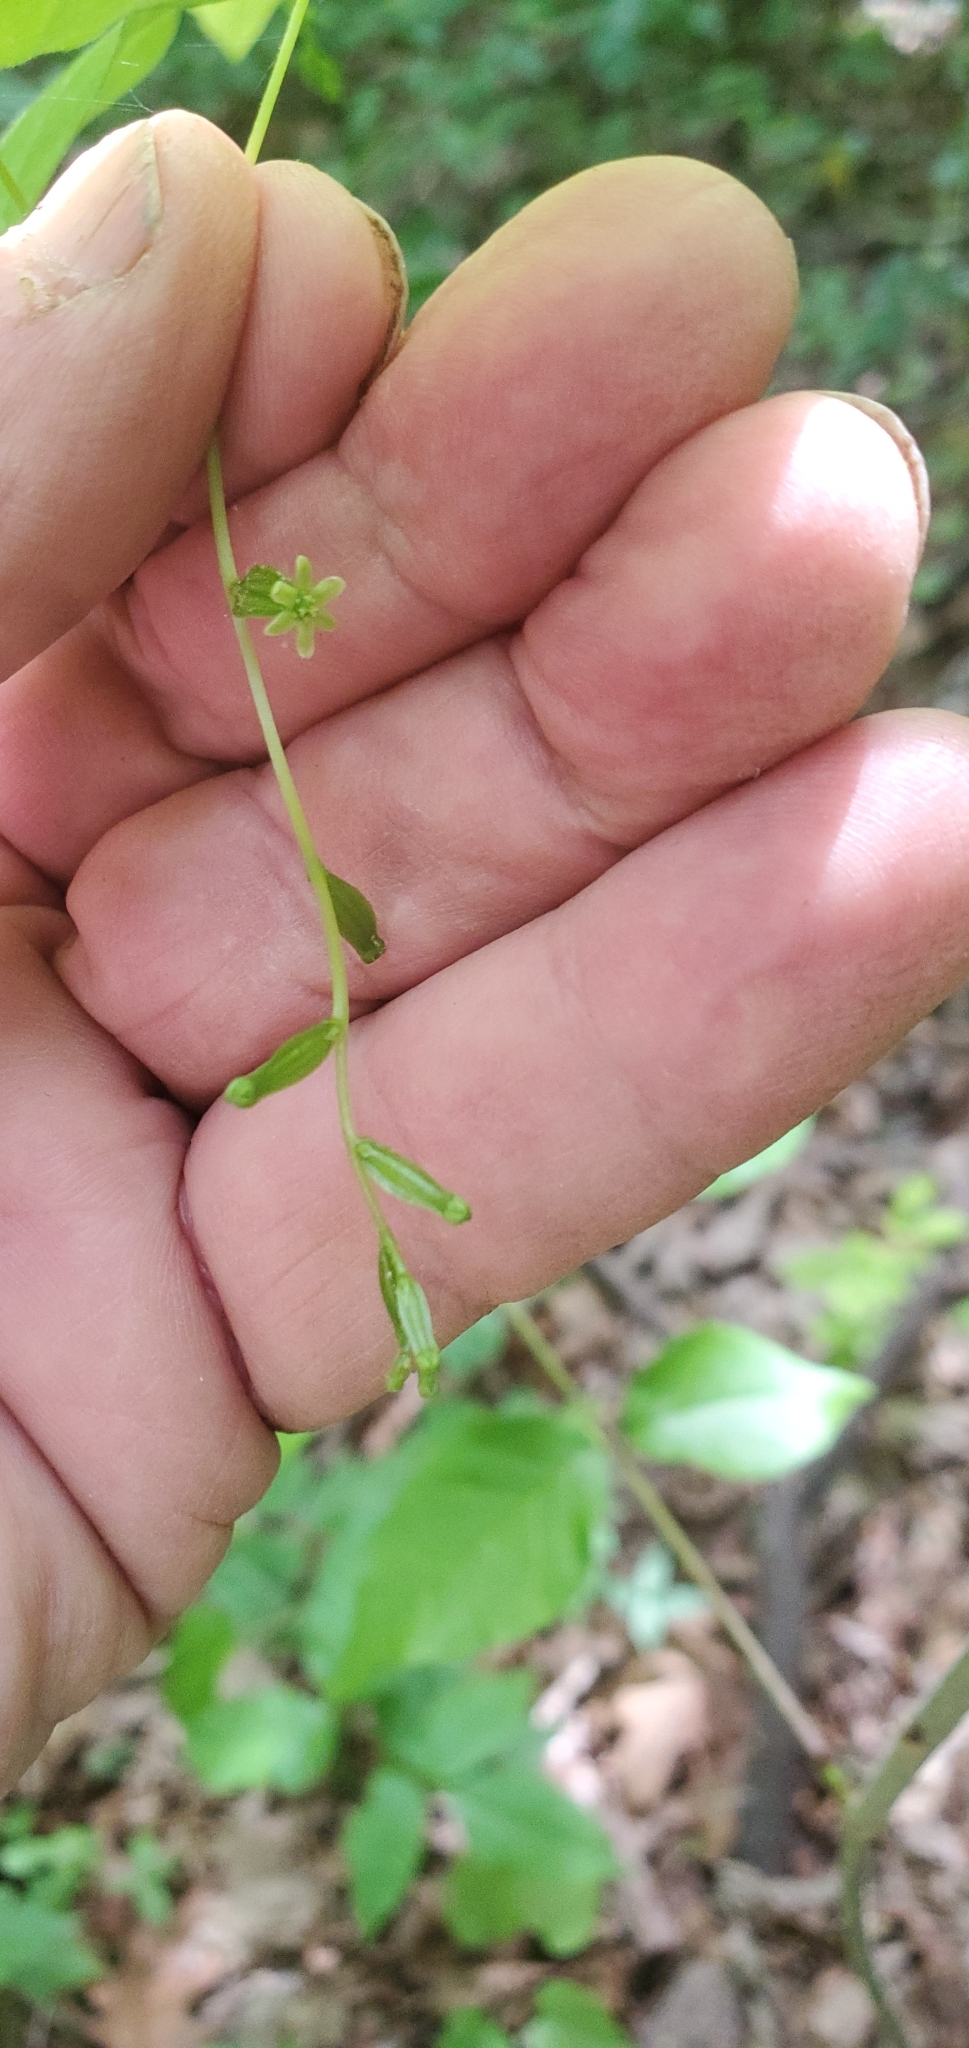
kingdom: Plantae
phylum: Tracheophyta
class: Liliopsida
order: Dioscoreales
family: Dioscoreaceae
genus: Dioscorea
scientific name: Dioscorea villosa
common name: Wild yam
